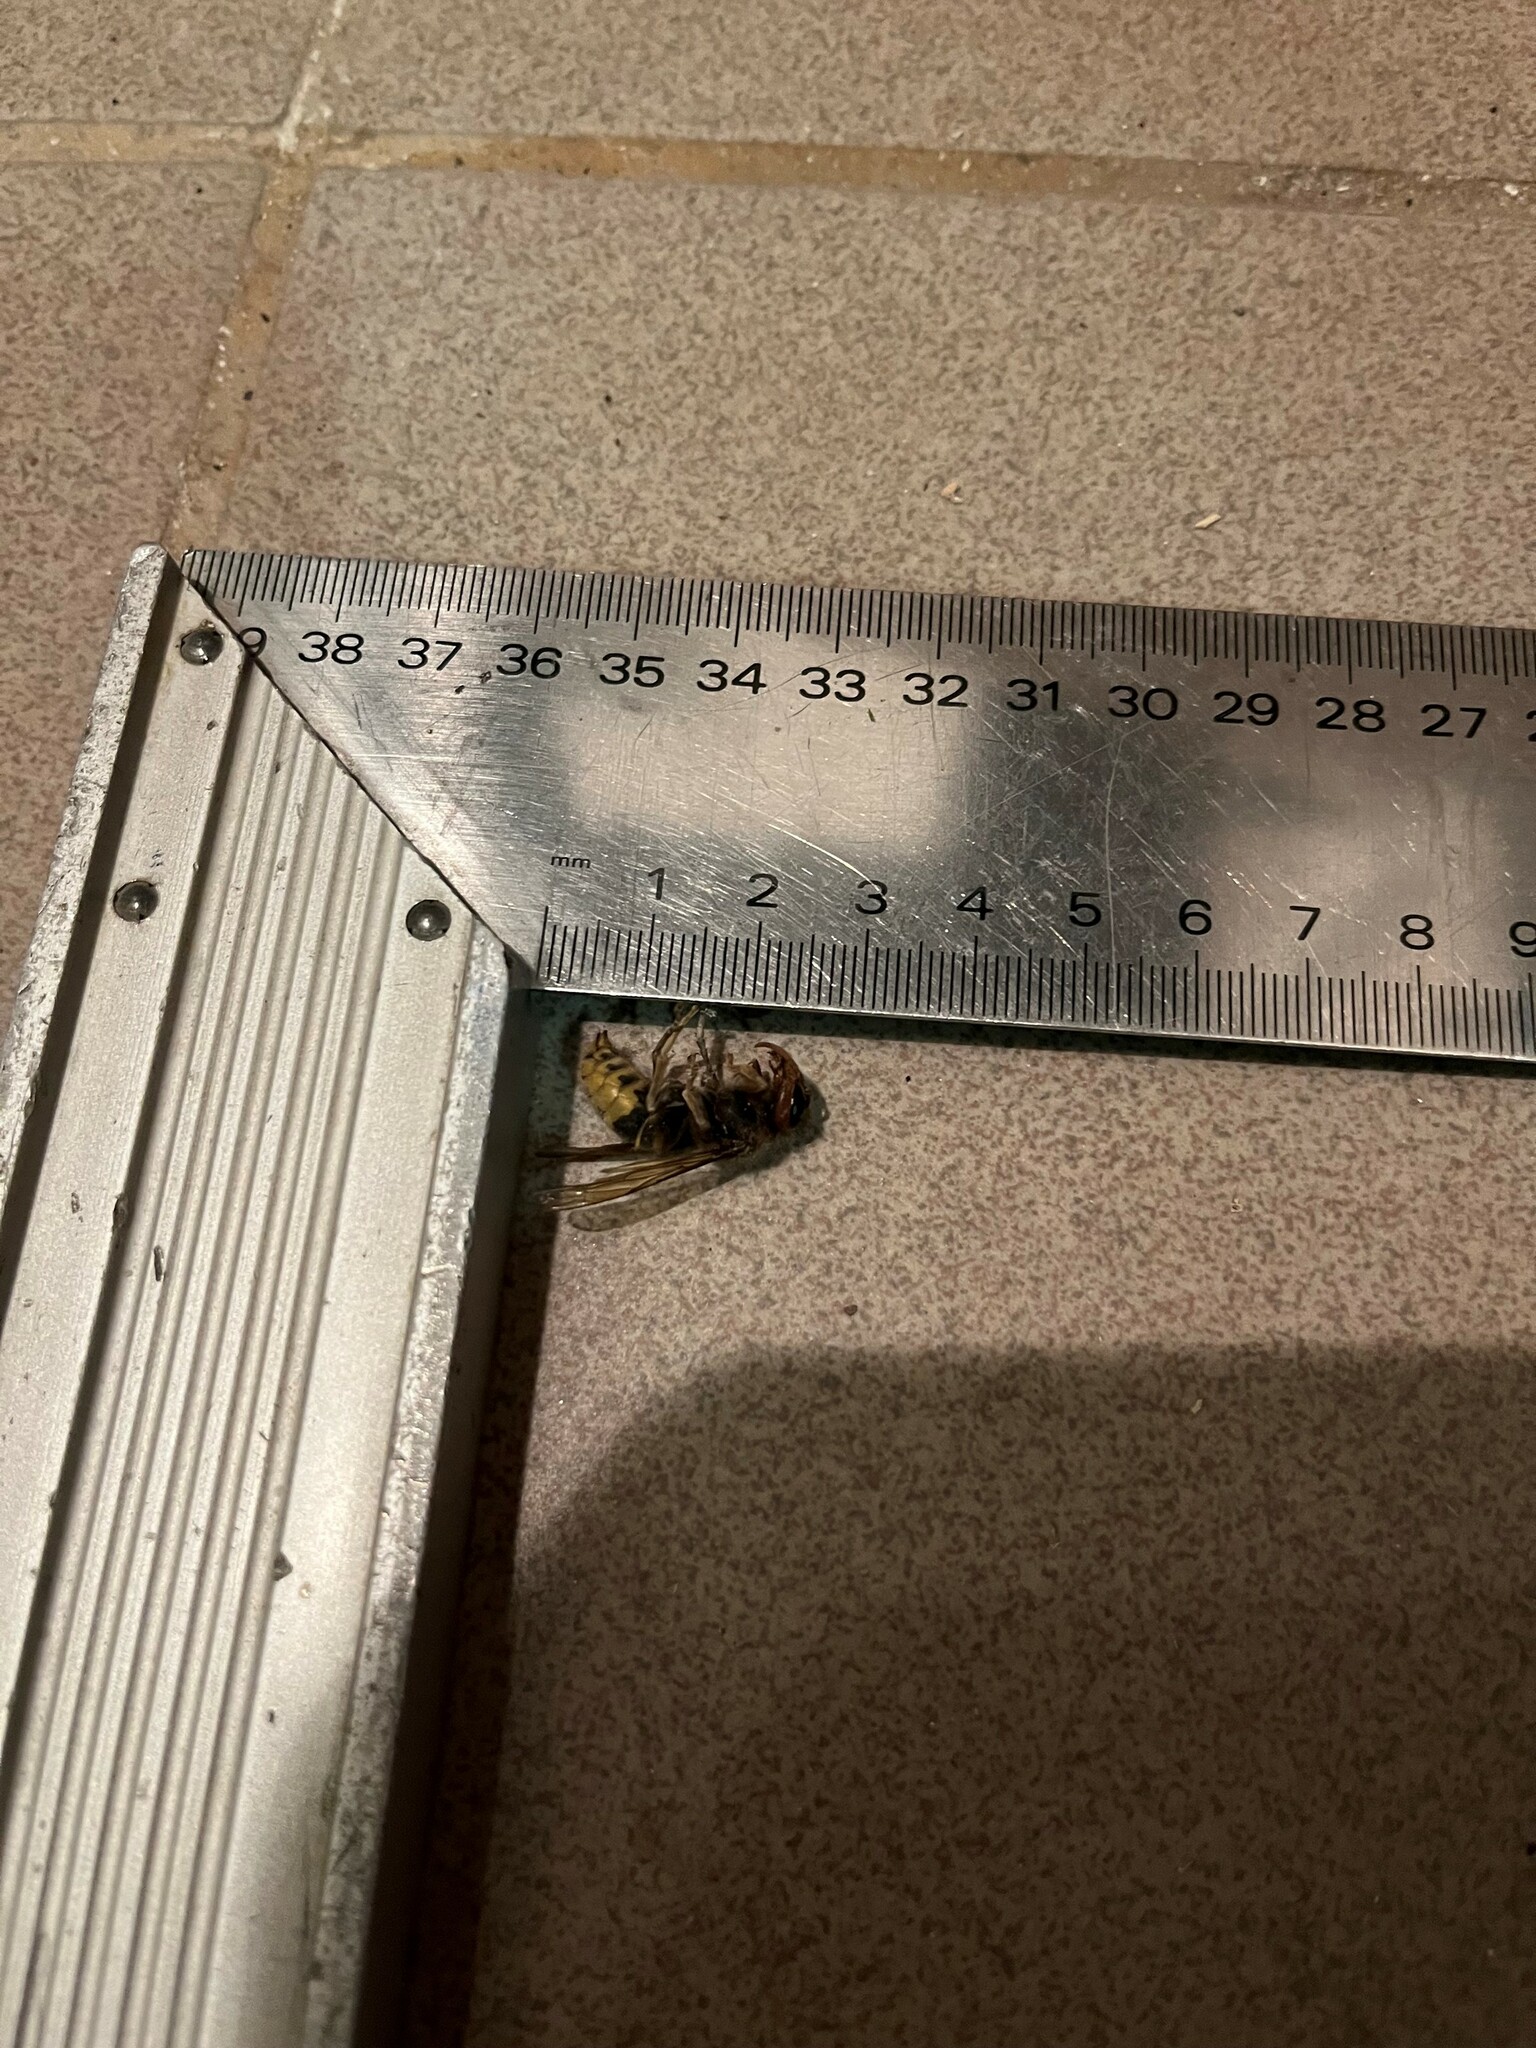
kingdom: Animalia
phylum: Arthropoda
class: Insecta
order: Hymenoptera
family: Vespidae
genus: Vespa
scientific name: Vespa crabro
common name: Hornet
